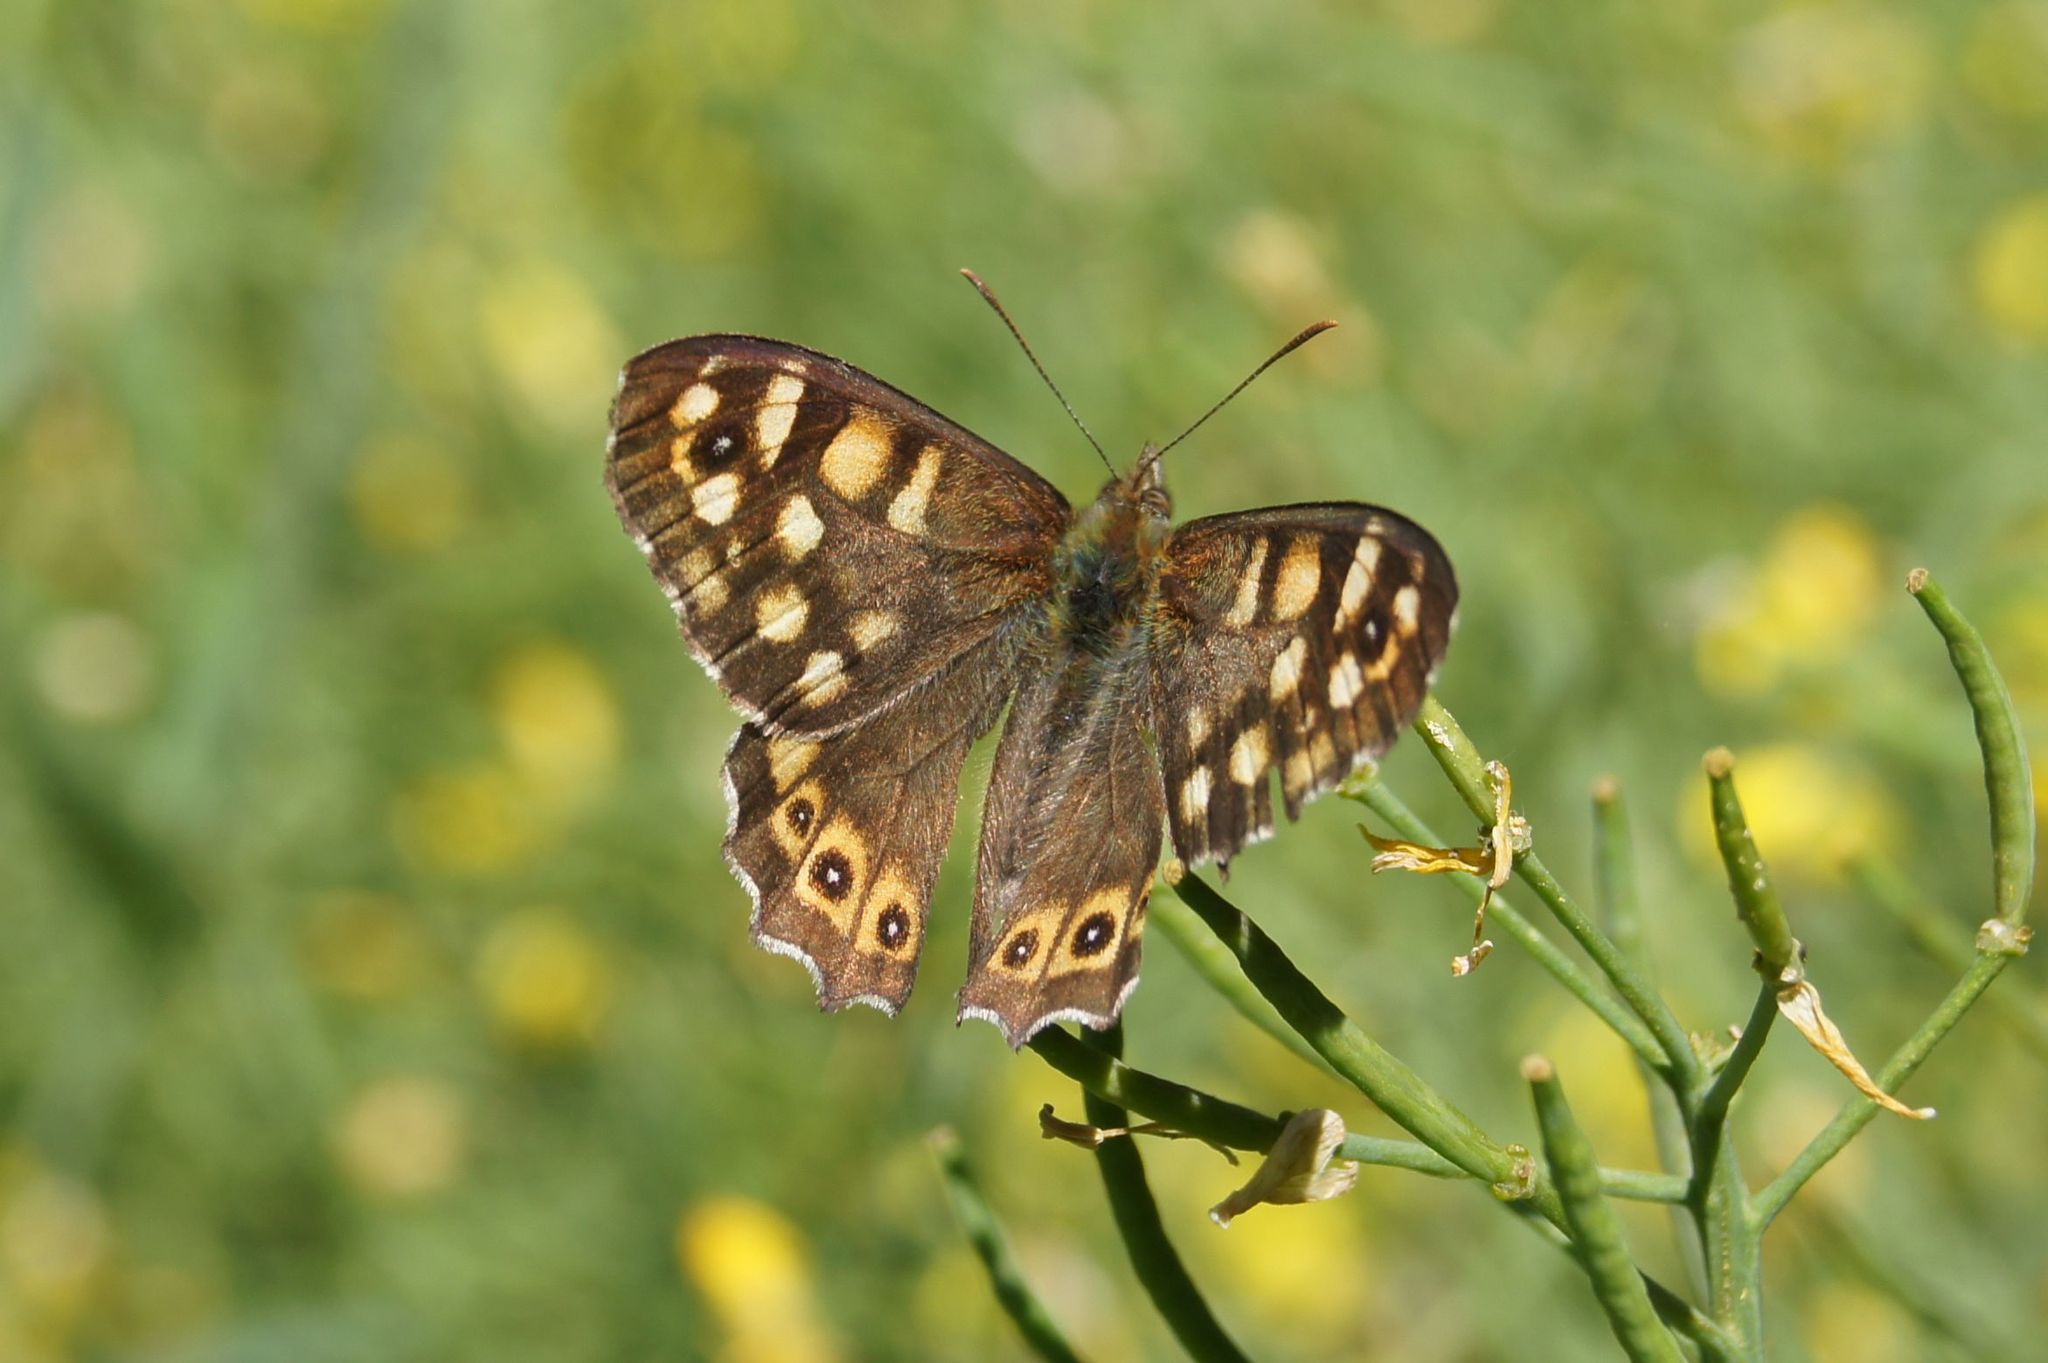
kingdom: Animalia
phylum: Arthropoda
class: Insecta
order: Lepidoptera
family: Nymphalidae
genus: Pararge
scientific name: Pararge aegeria
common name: Speckled wood
